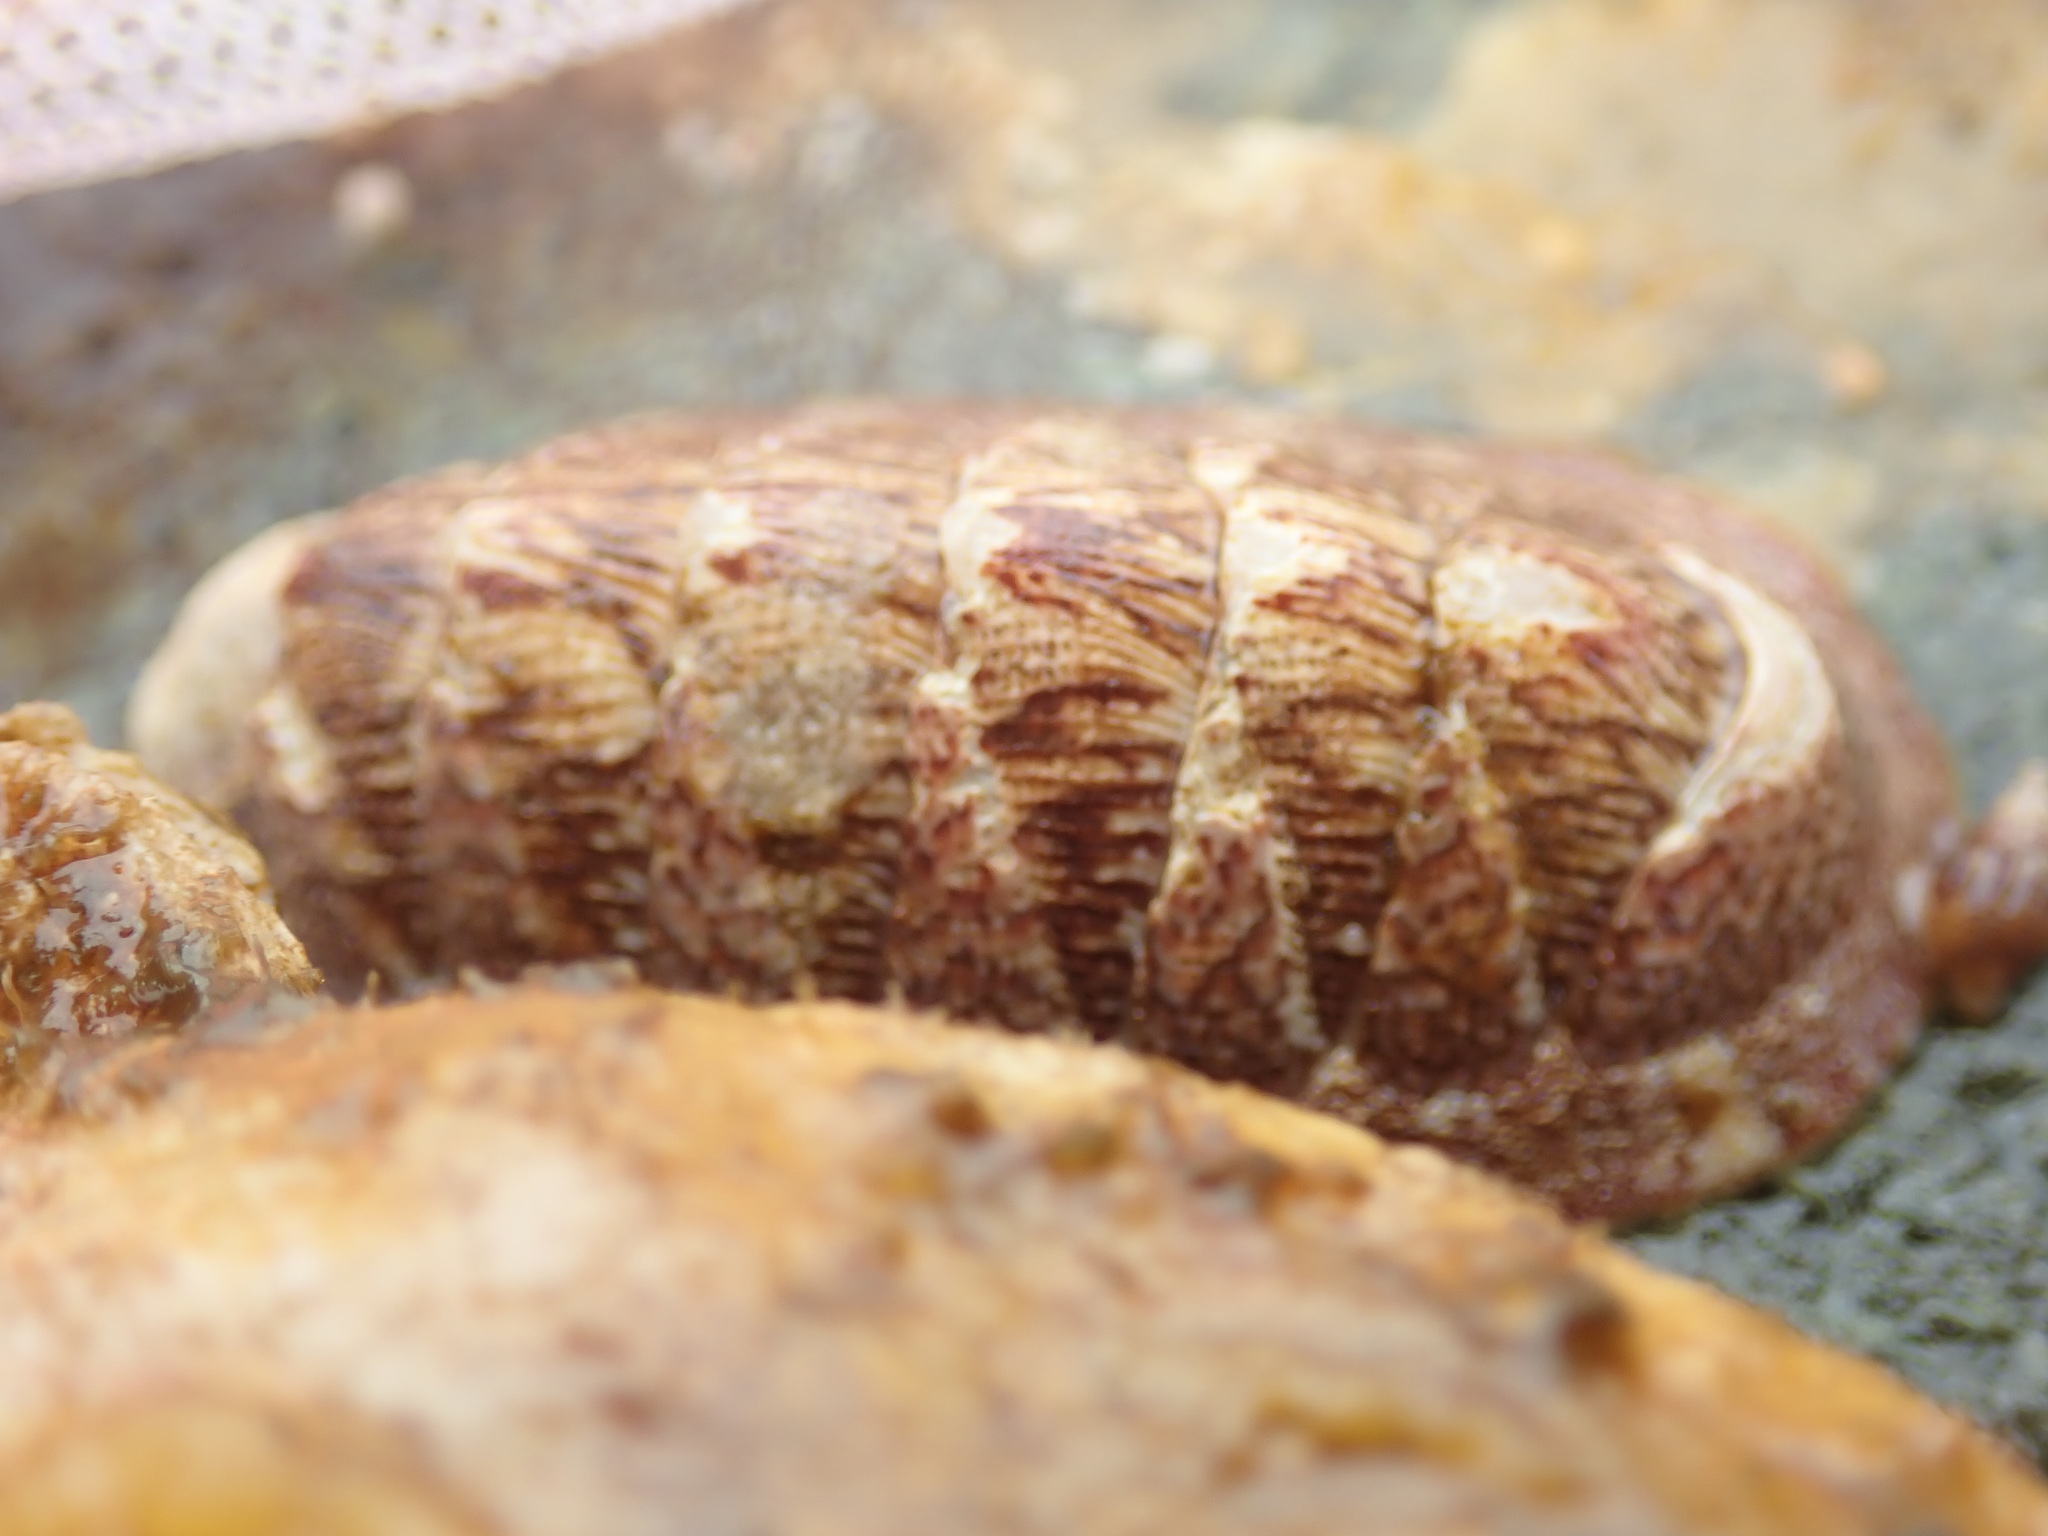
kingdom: Animalia
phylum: Mollusca
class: Polyplacophora
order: Chitonida
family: Ischnochitonidae
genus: Lepidozona
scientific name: Lepidozona mertensii
